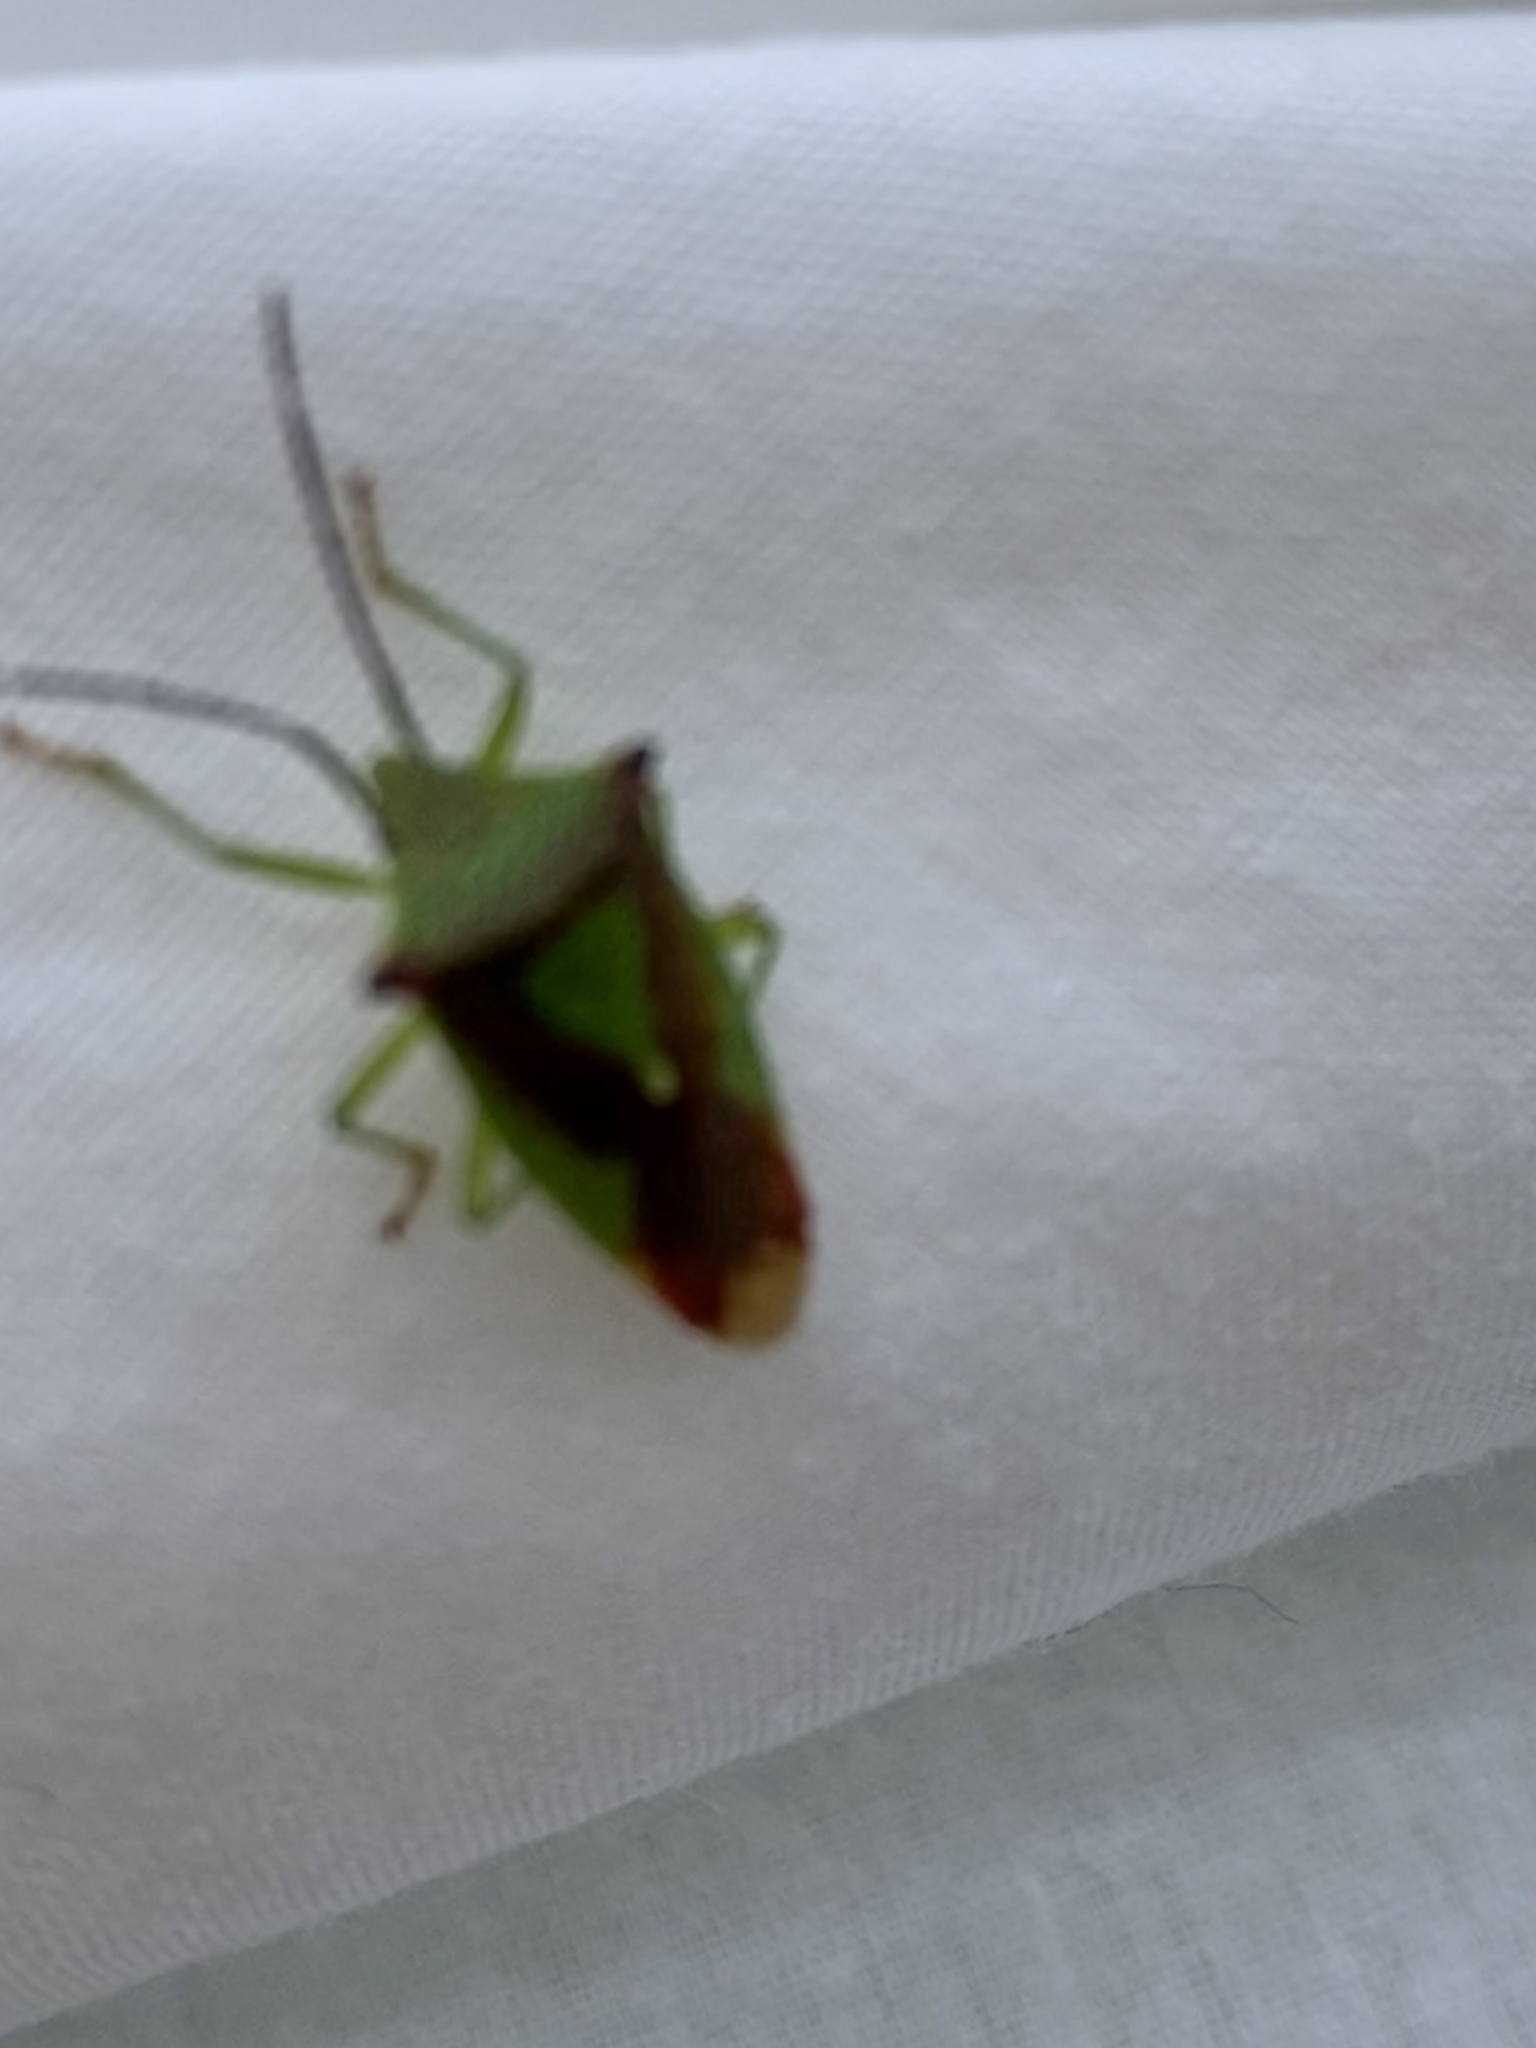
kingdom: Animalia
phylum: Arthropoda
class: Insecta
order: Hemiptera
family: Acanthosomatidae
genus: Acanthosoma
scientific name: Acanthosoma haemorrhoidale
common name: Hawthorn shieldbug
